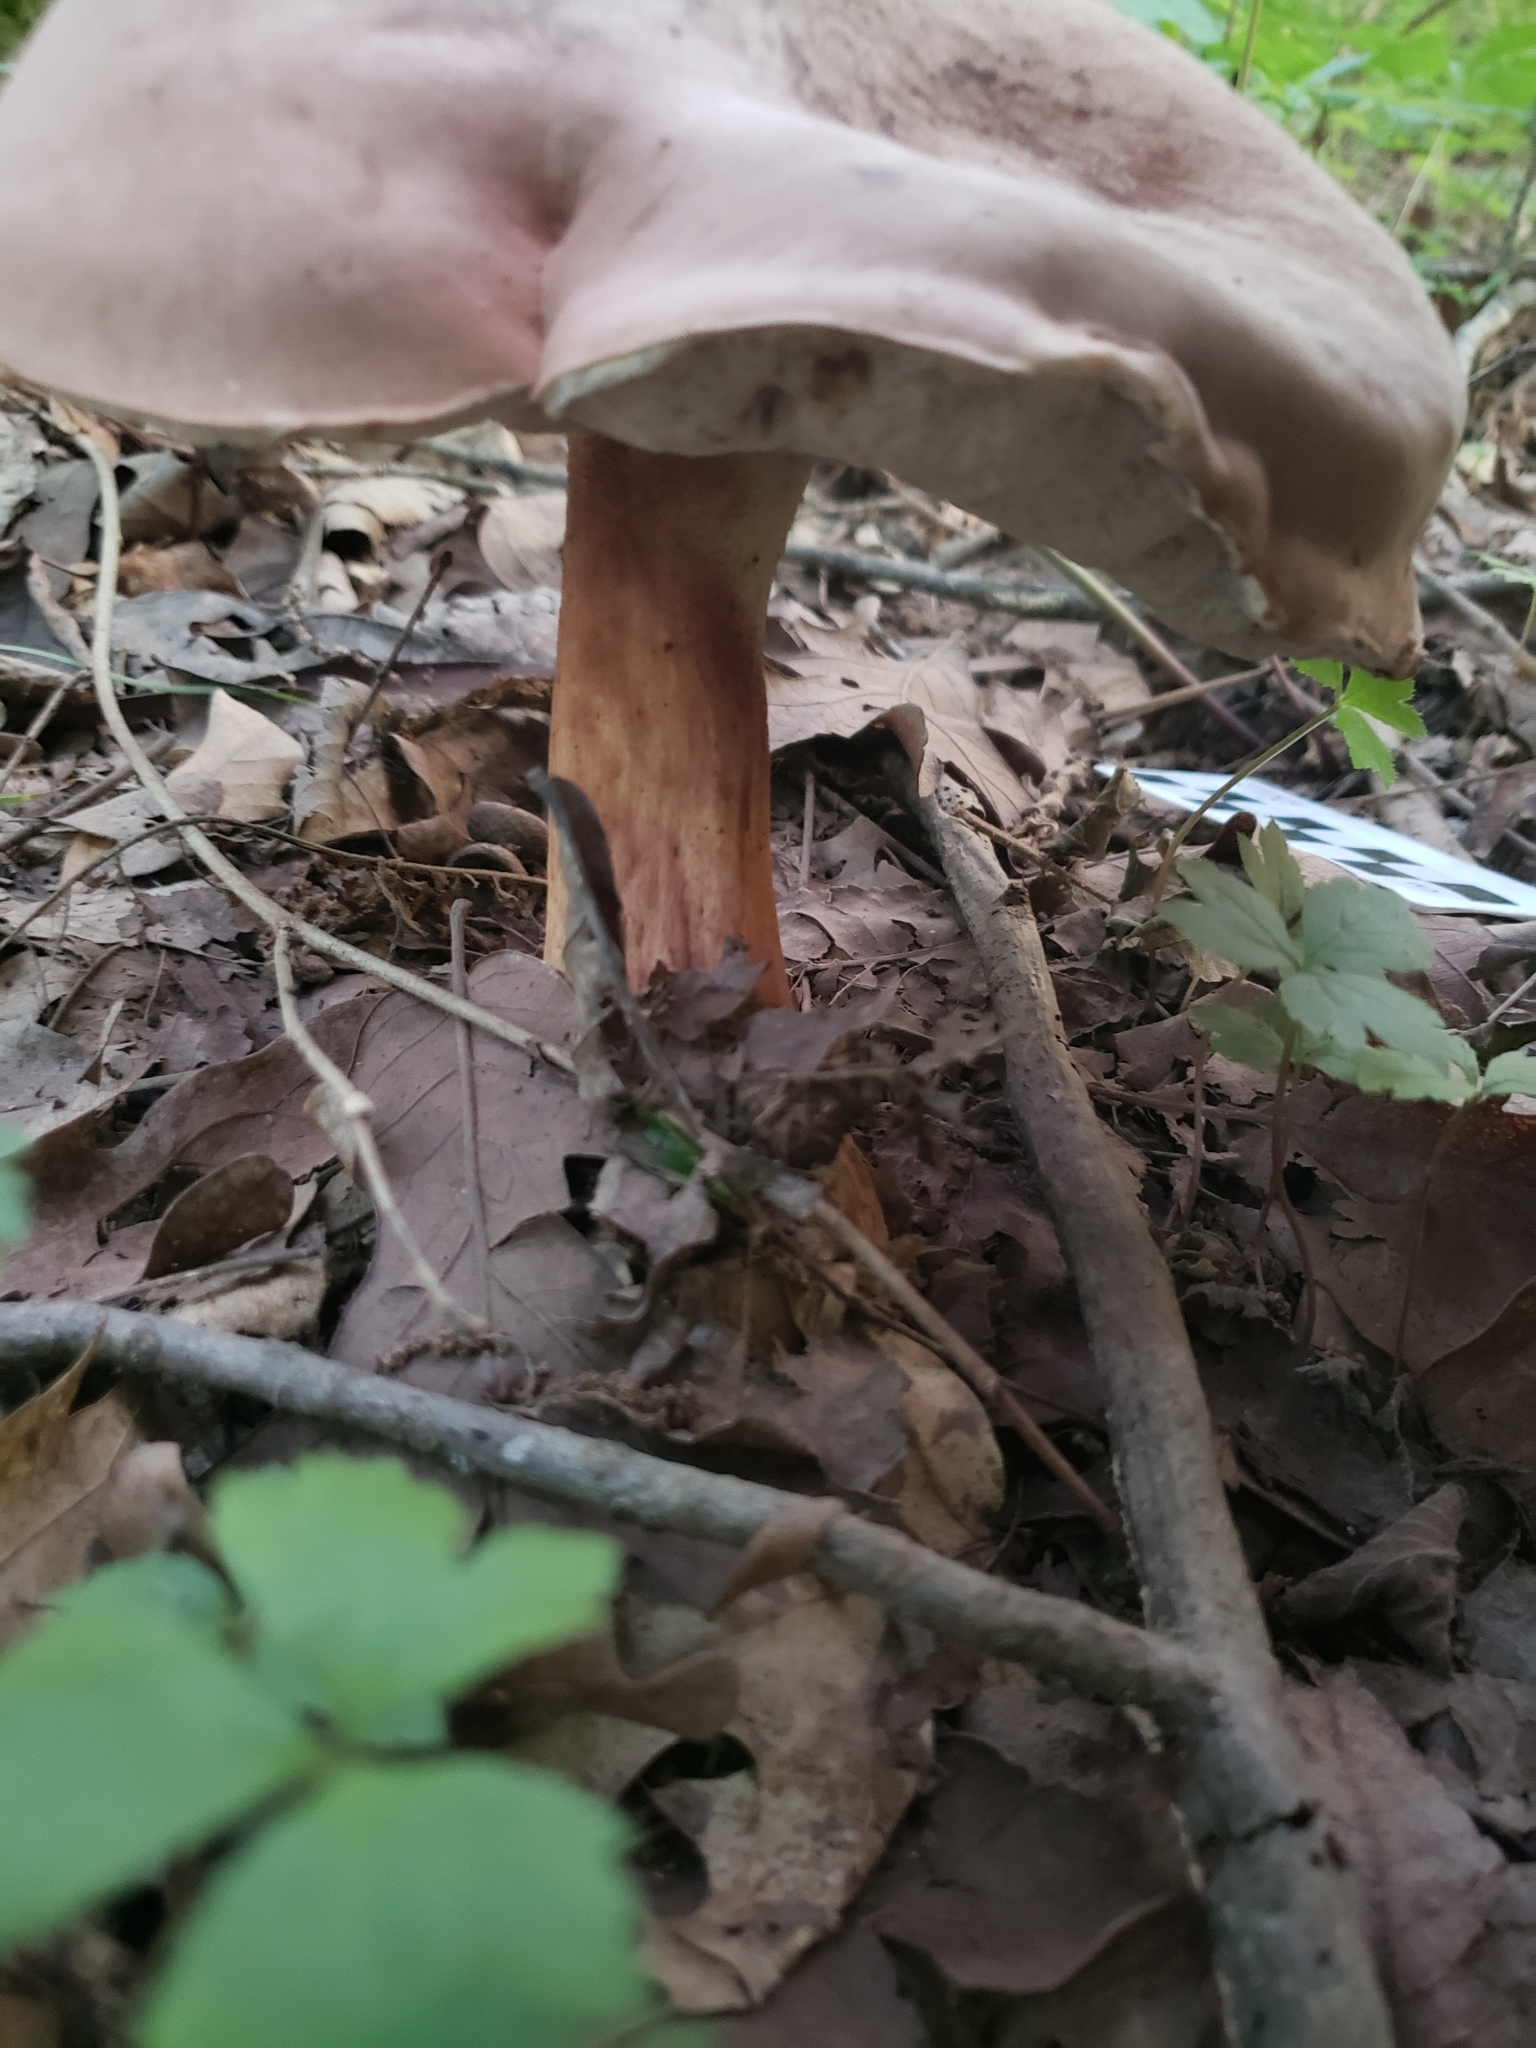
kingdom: Fungi
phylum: Basidiomycota
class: Agaricomycetes
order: Boletales
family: Boletaceae
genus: Tylopilus
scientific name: Tylopilus felleus
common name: Bitter bolete
